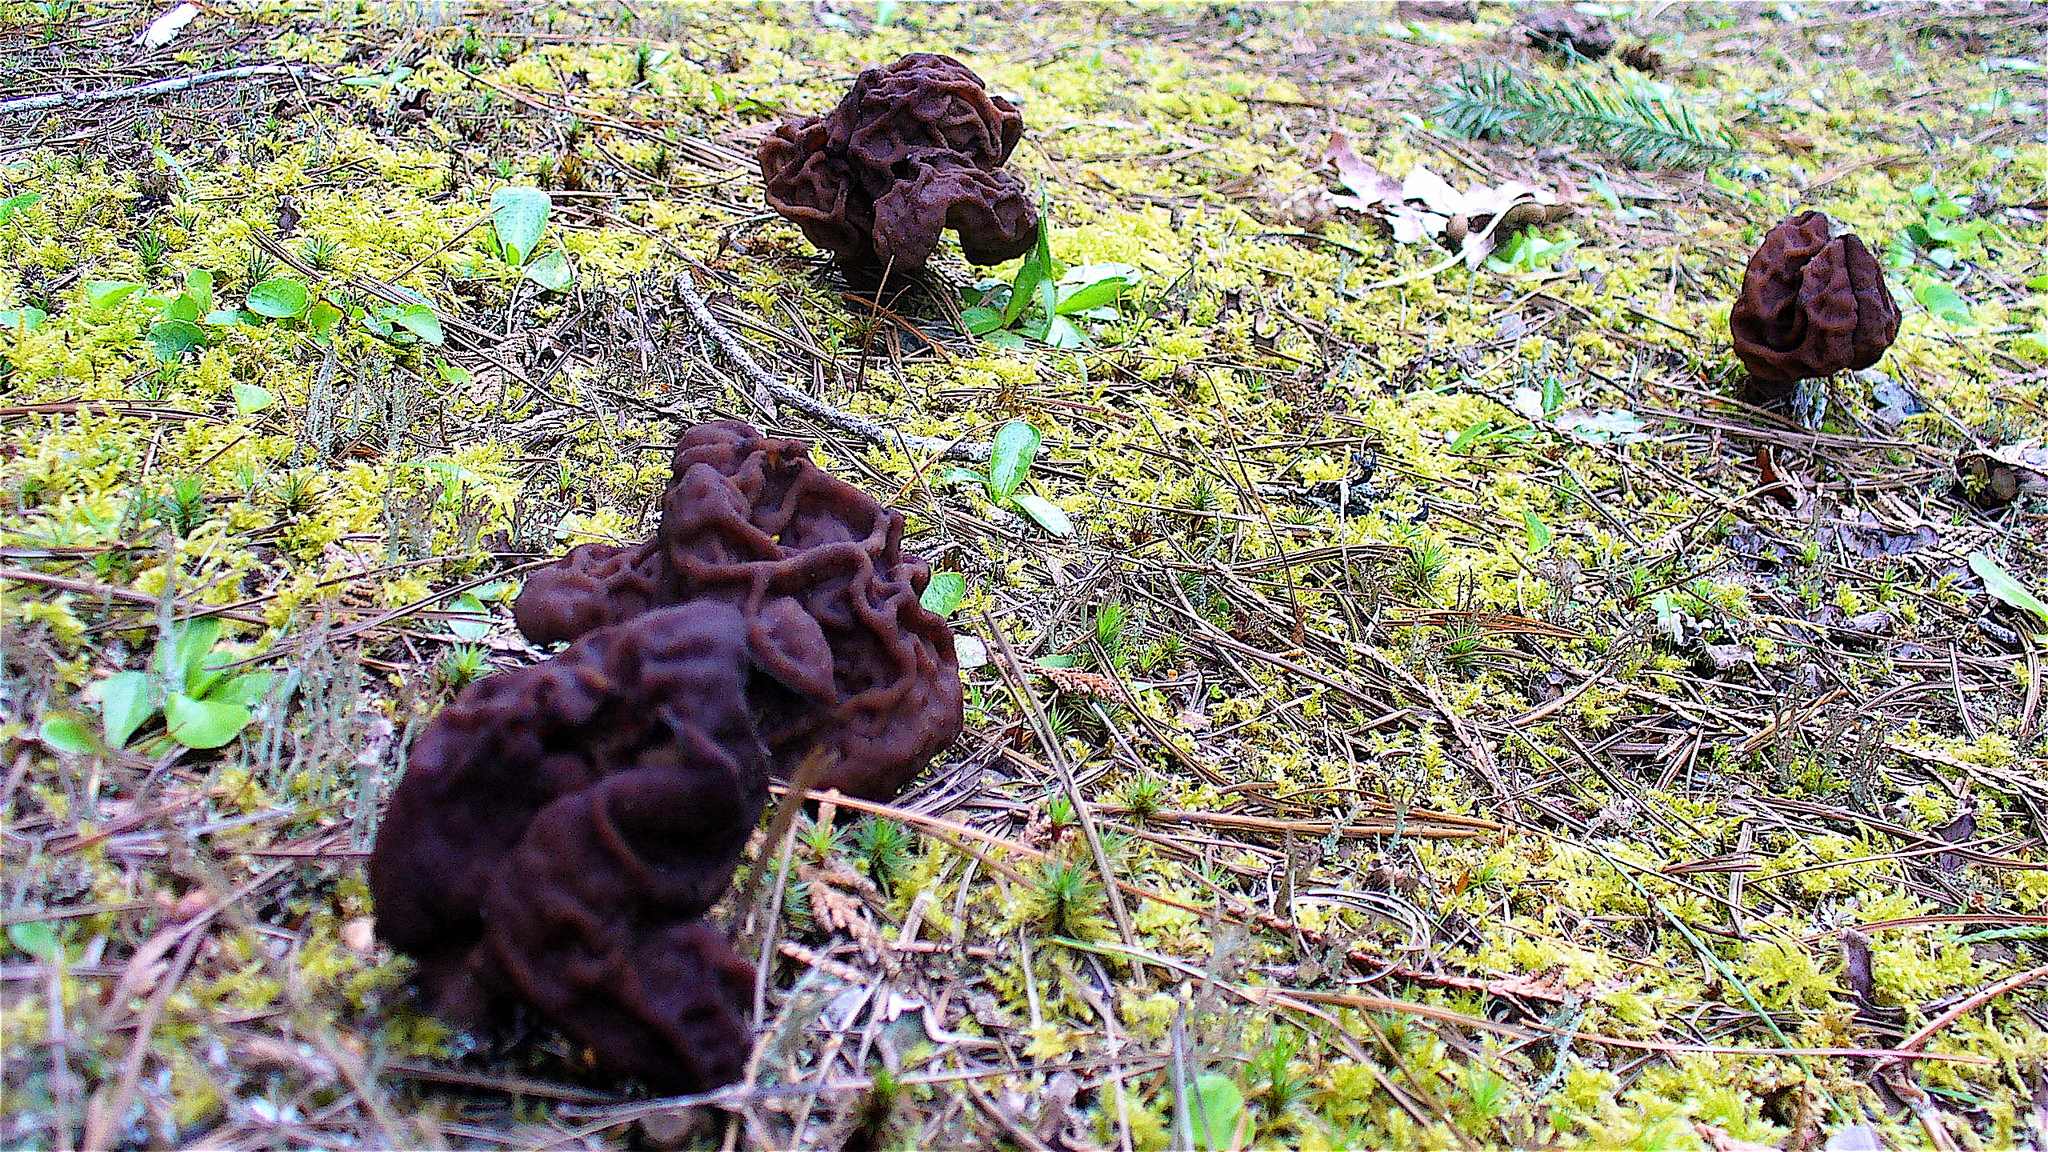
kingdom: Fungi
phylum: Ascomycota
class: Pezizomycetes
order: Pezizales
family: Discinaceae
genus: Gyromitra
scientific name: Gyromitra esculenta
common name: False morel
